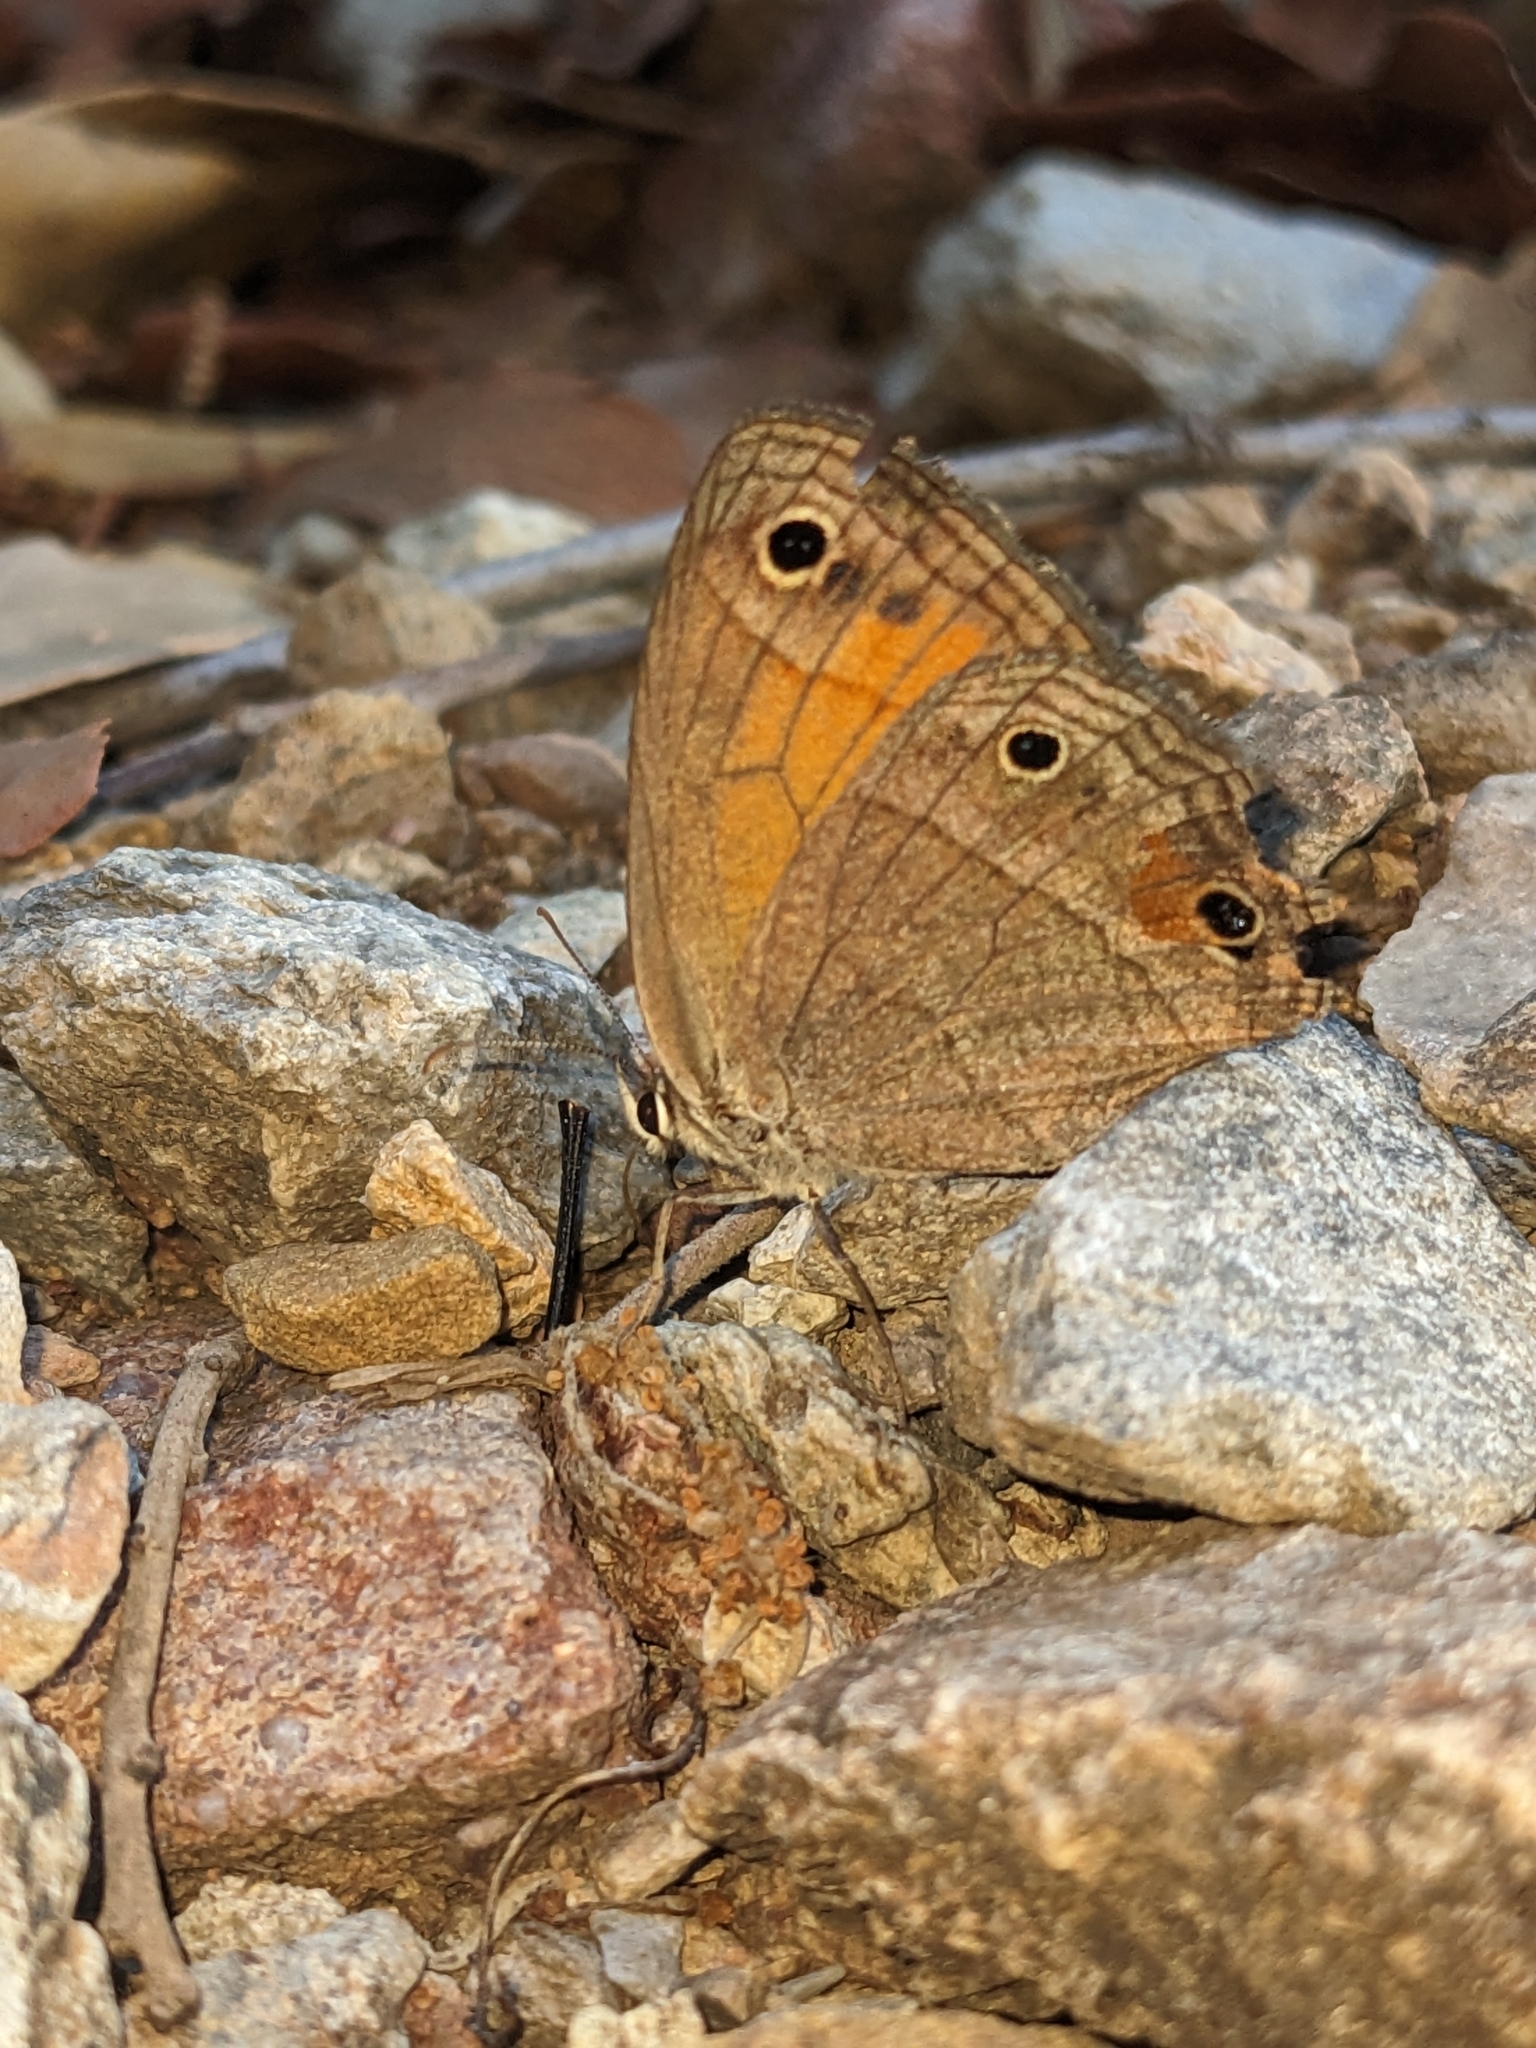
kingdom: Animalia
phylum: Arthropoda
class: Insecta
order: Lepidoptera
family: Nymphalidae
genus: Euptychia
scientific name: Euptychia
